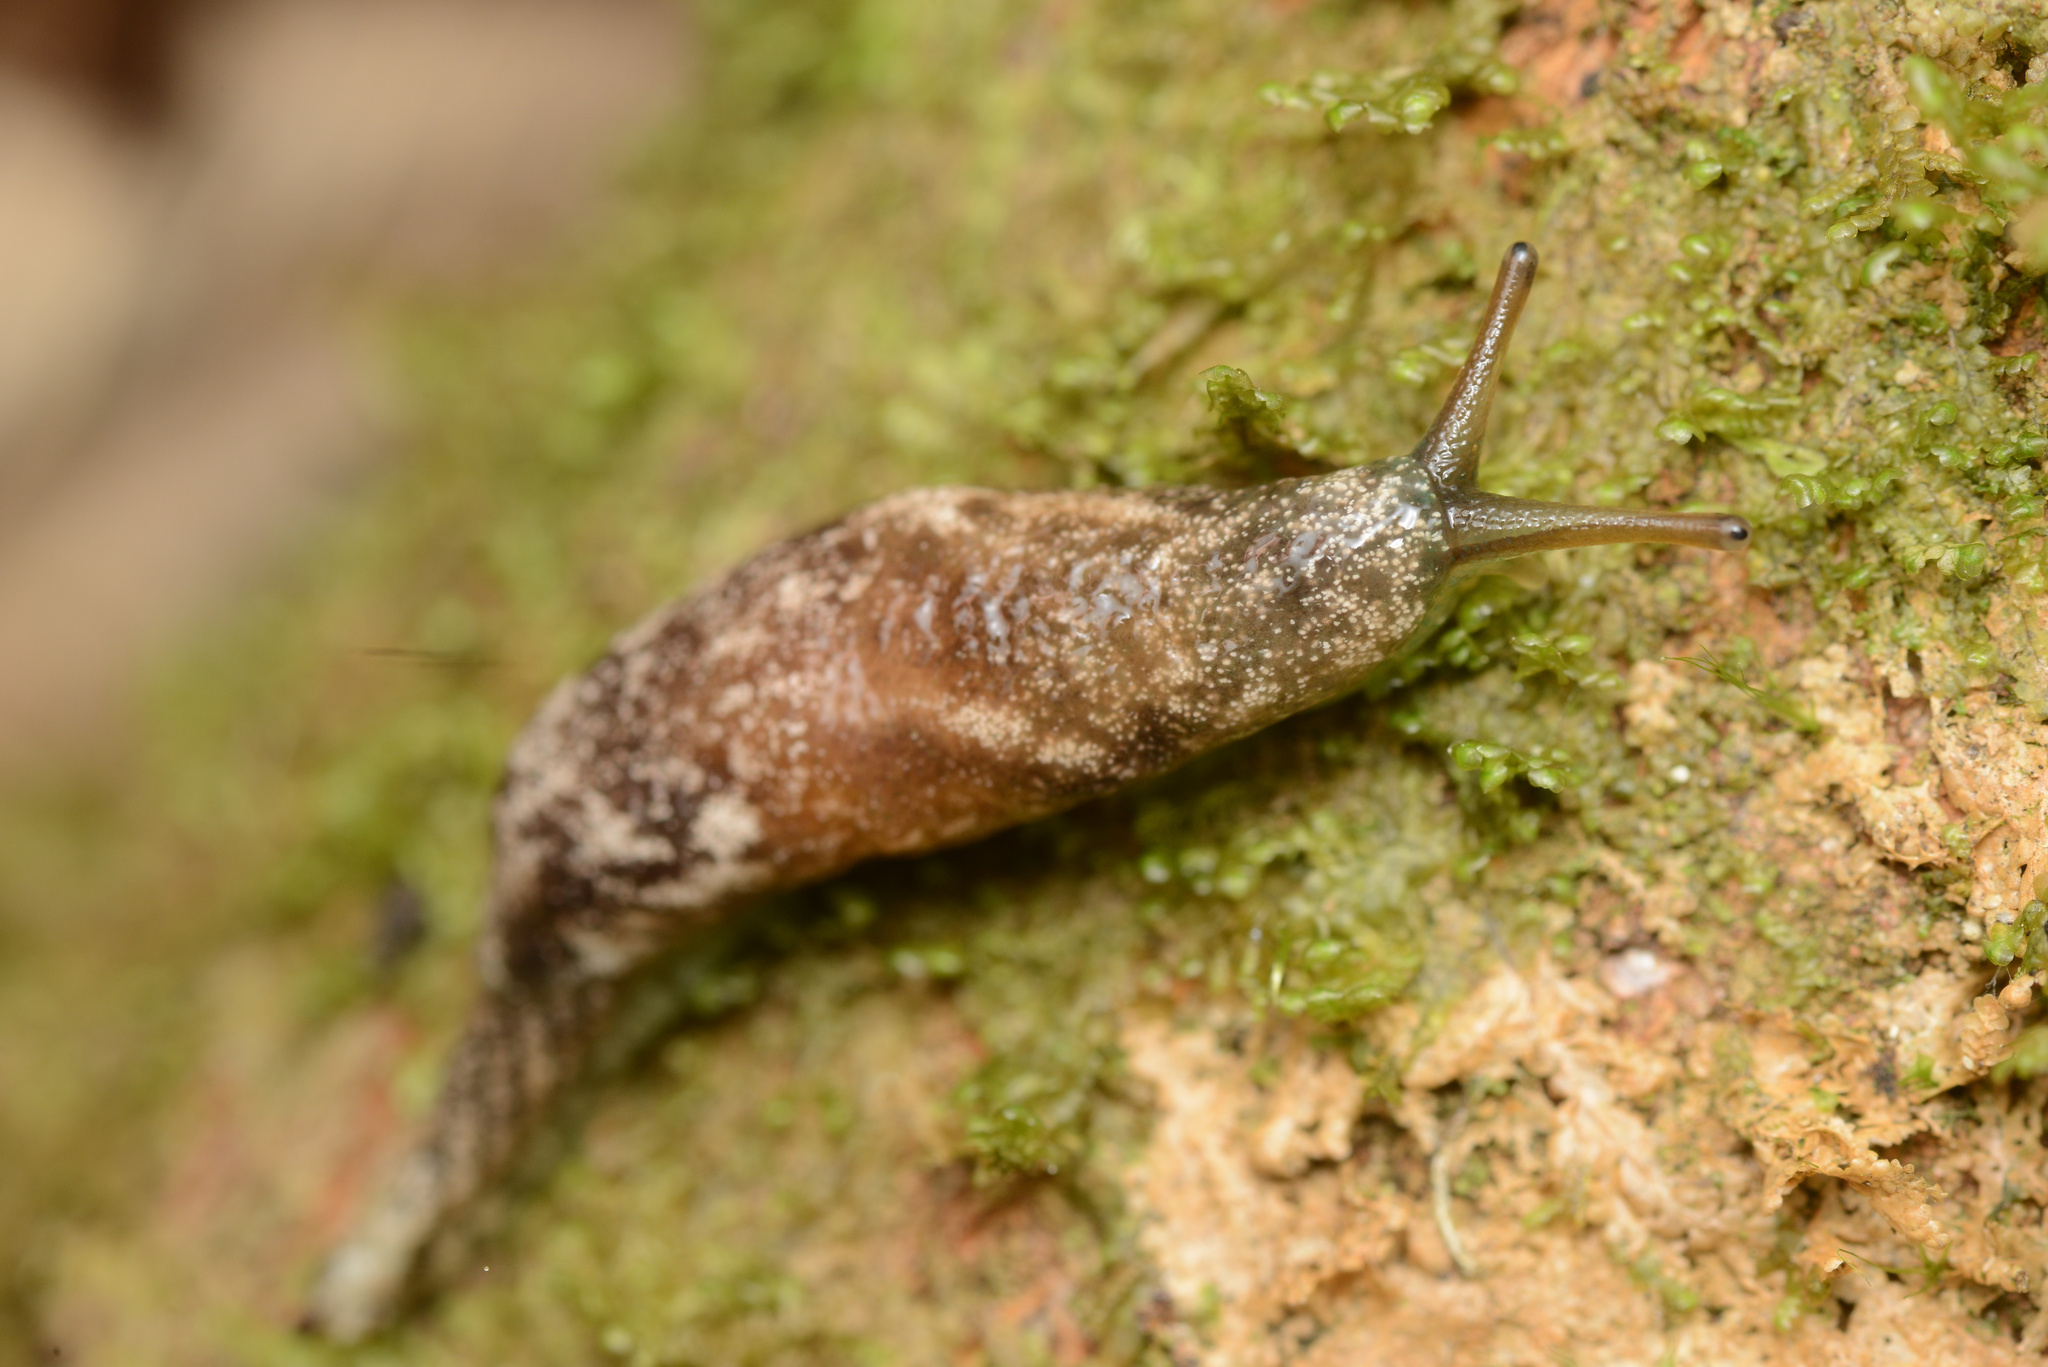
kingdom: Animalia
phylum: Mollusca
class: Gastropoda
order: Stylommatophora
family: Cystopeltidae
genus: Cystopelta
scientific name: Cystopelta bicolor
